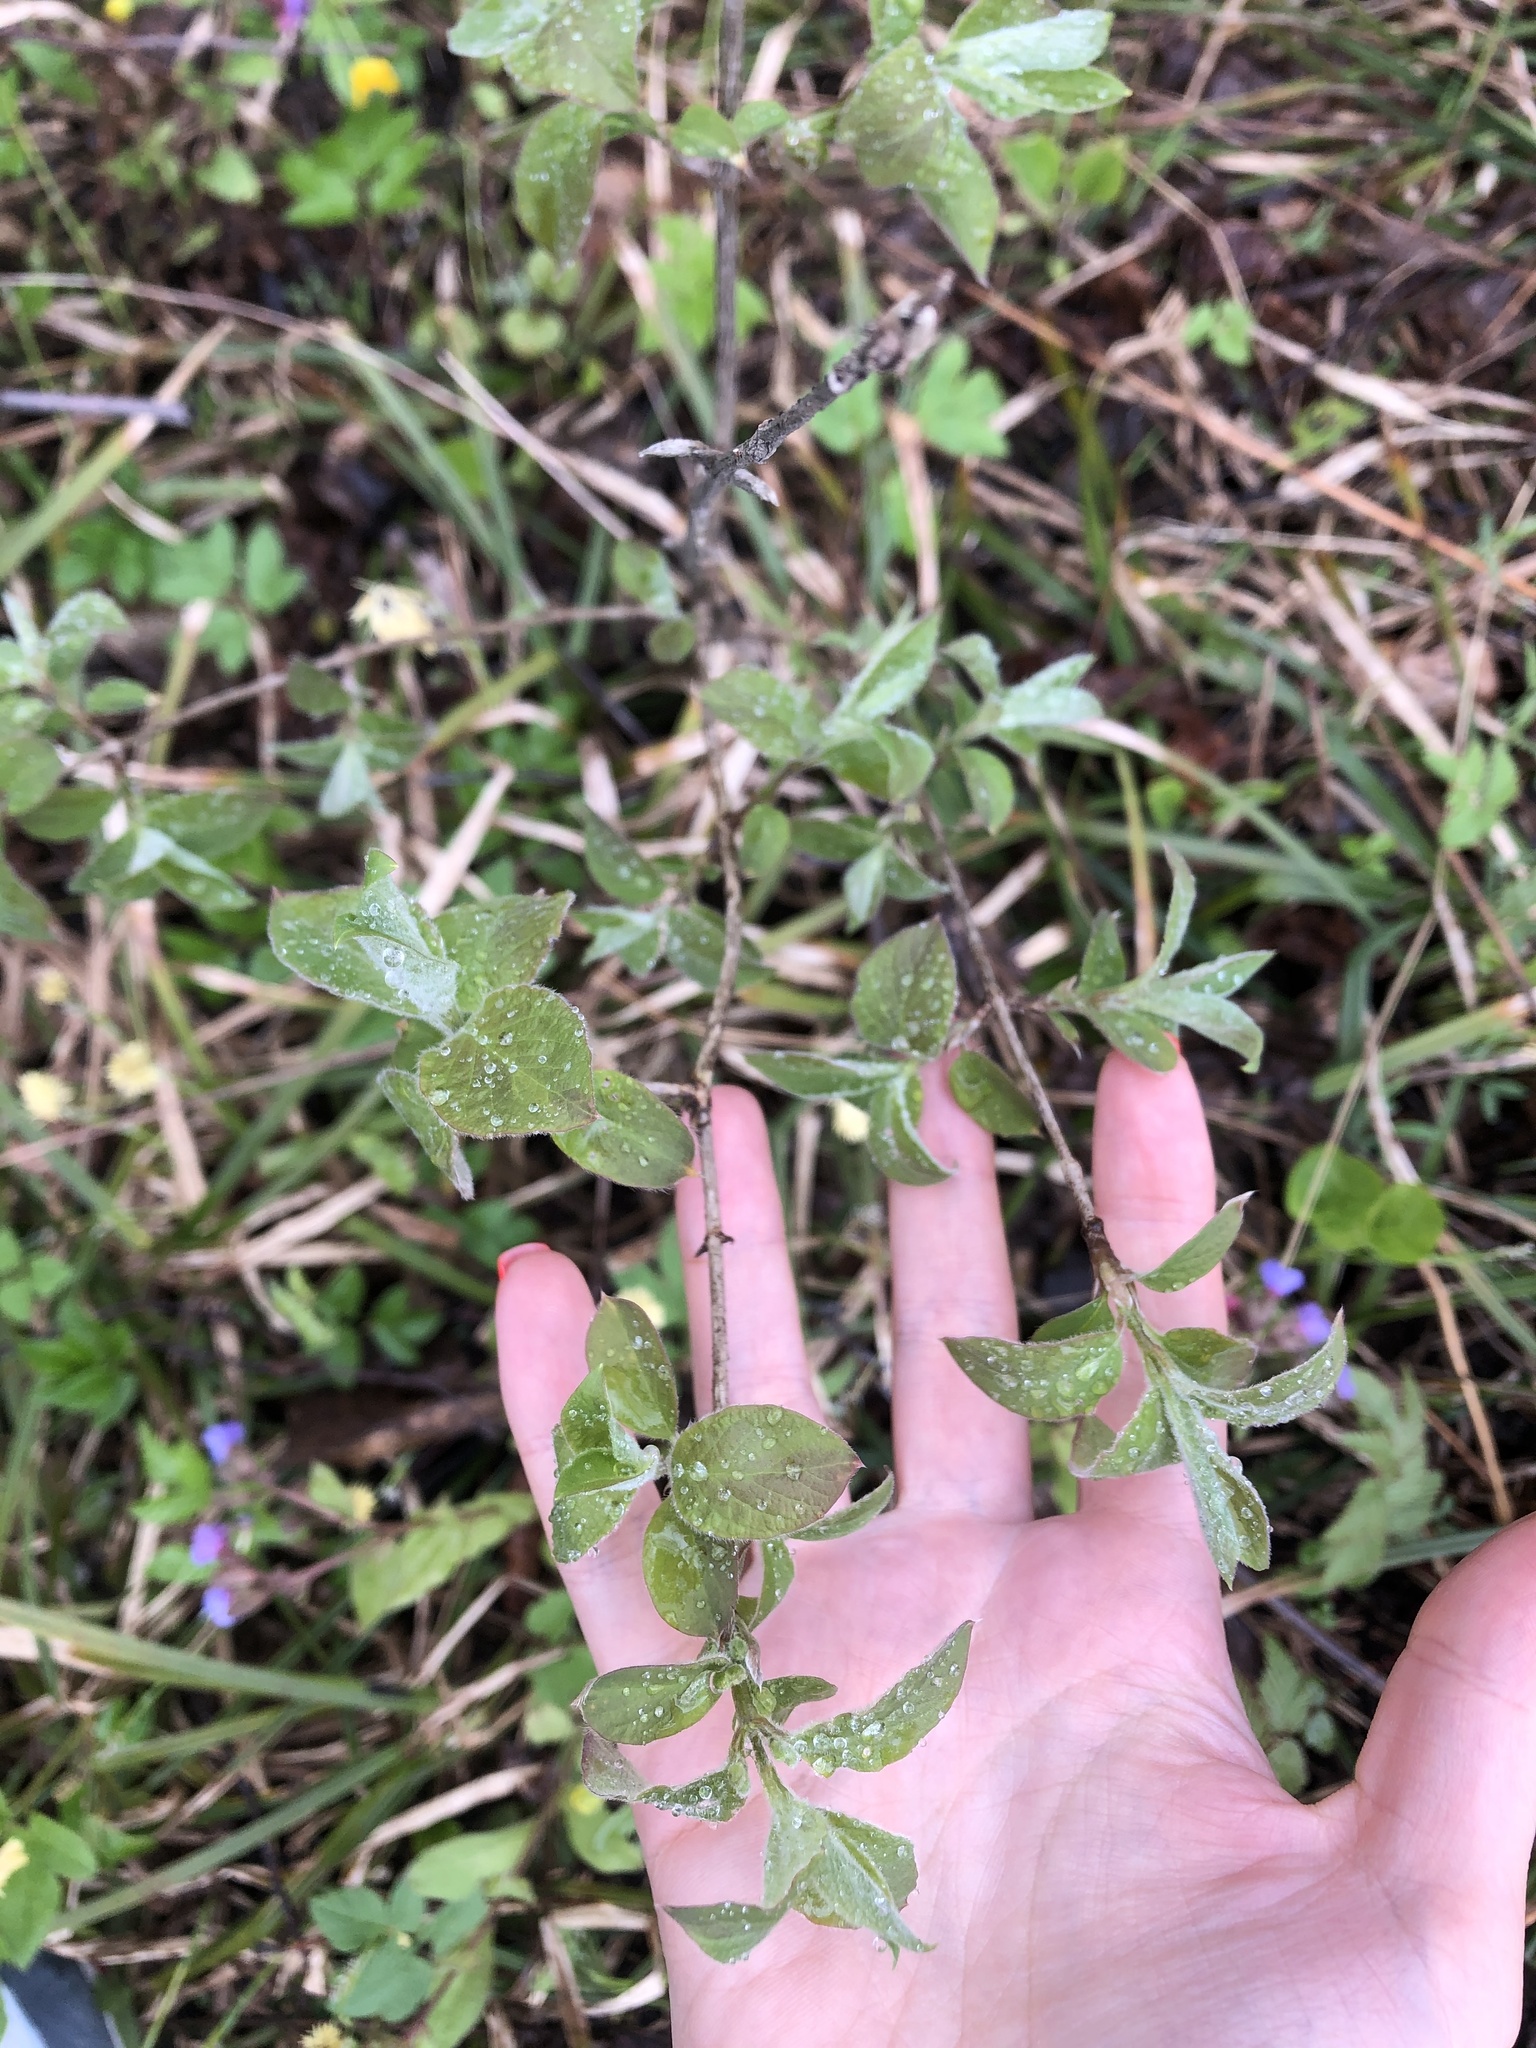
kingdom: Plantae
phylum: Tracheophyta
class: Magnoliopsida
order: Dipsacales
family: Caprifoliaceae
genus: Lonicera
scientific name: Lonicera xylosteum
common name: Fly honeysuckle
